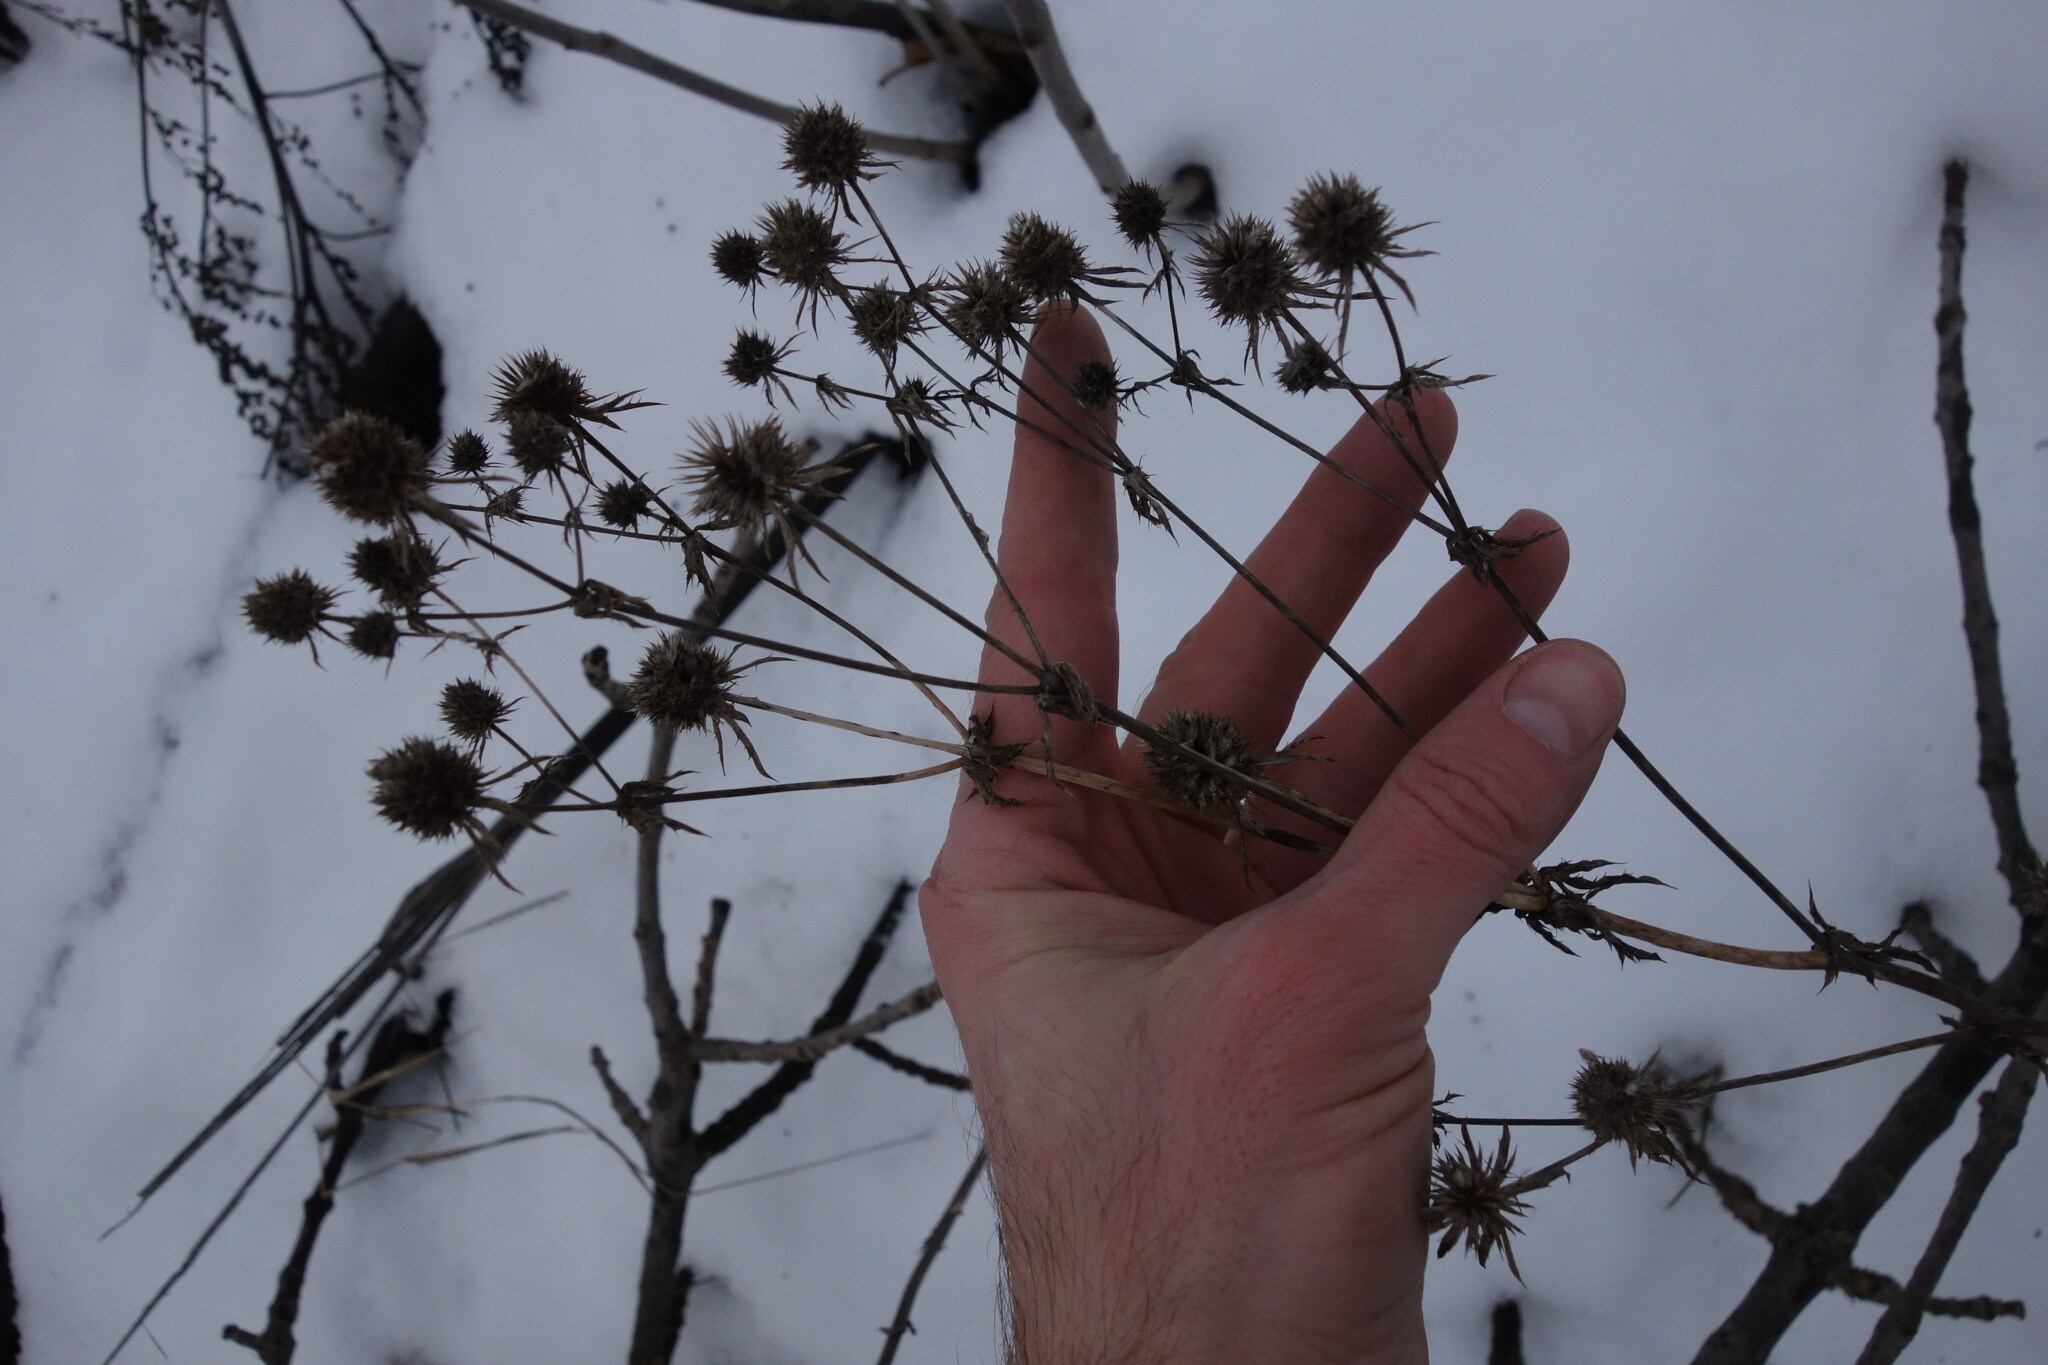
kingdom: Plantae
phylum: Tracheophyta
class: Magnoliopsida
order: Apiales
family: Apiaceae
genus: Eryngium
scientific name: Eryngium planum
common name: Blue eryngo
